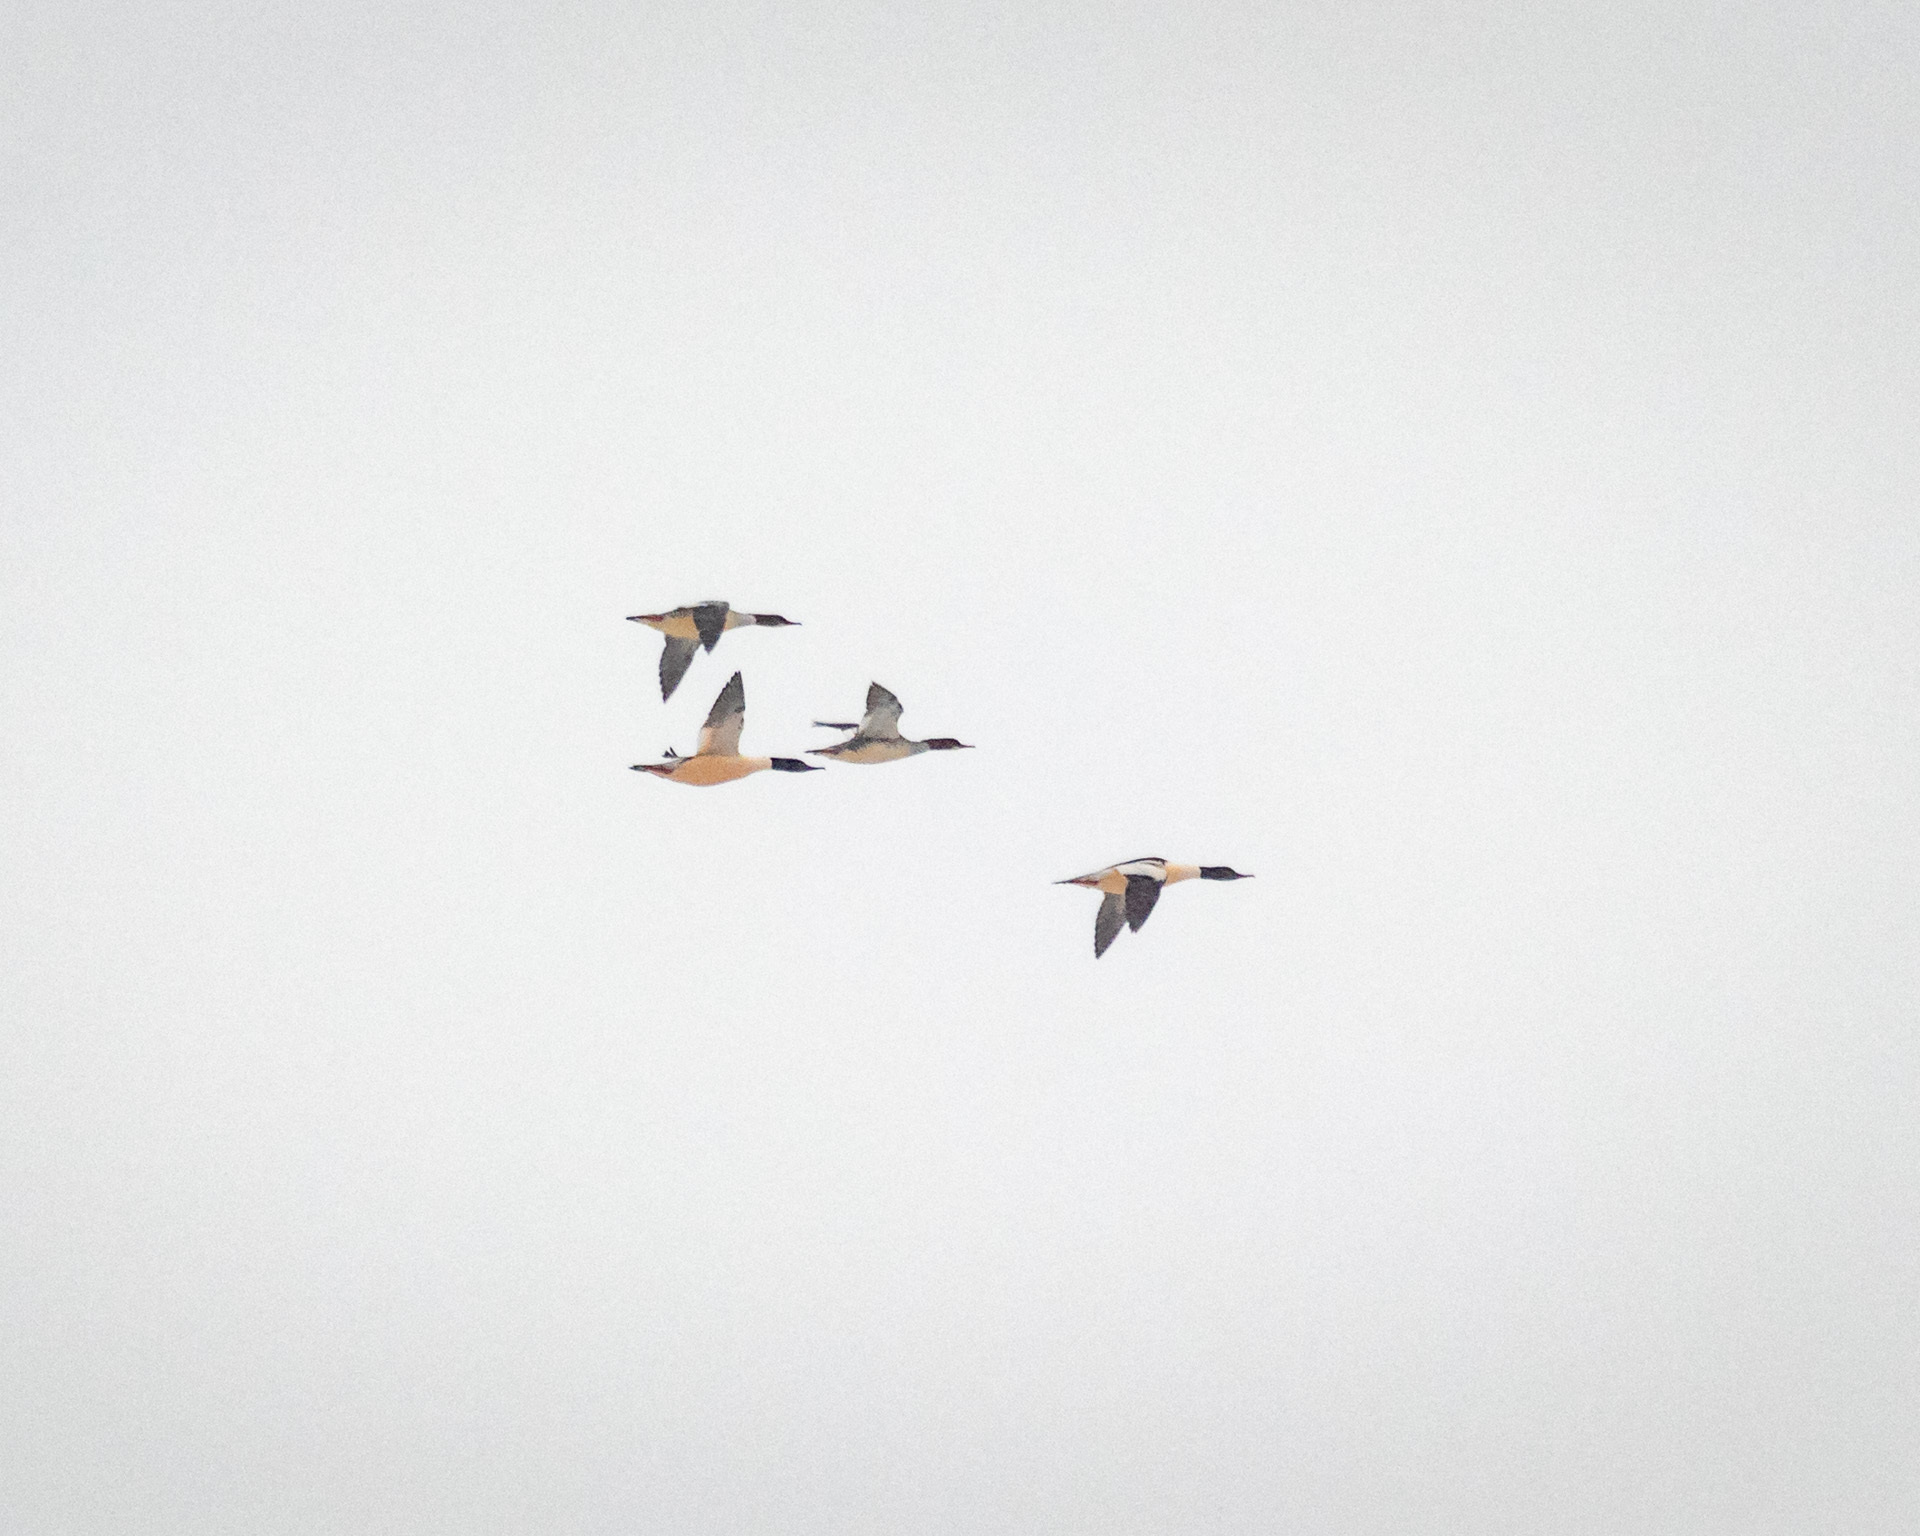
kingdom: Animalia
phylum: Chordata
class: Aves
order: Anseriformes
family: Anatidae
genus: Mergus
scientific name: Mergus merganser
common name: Common merganser
